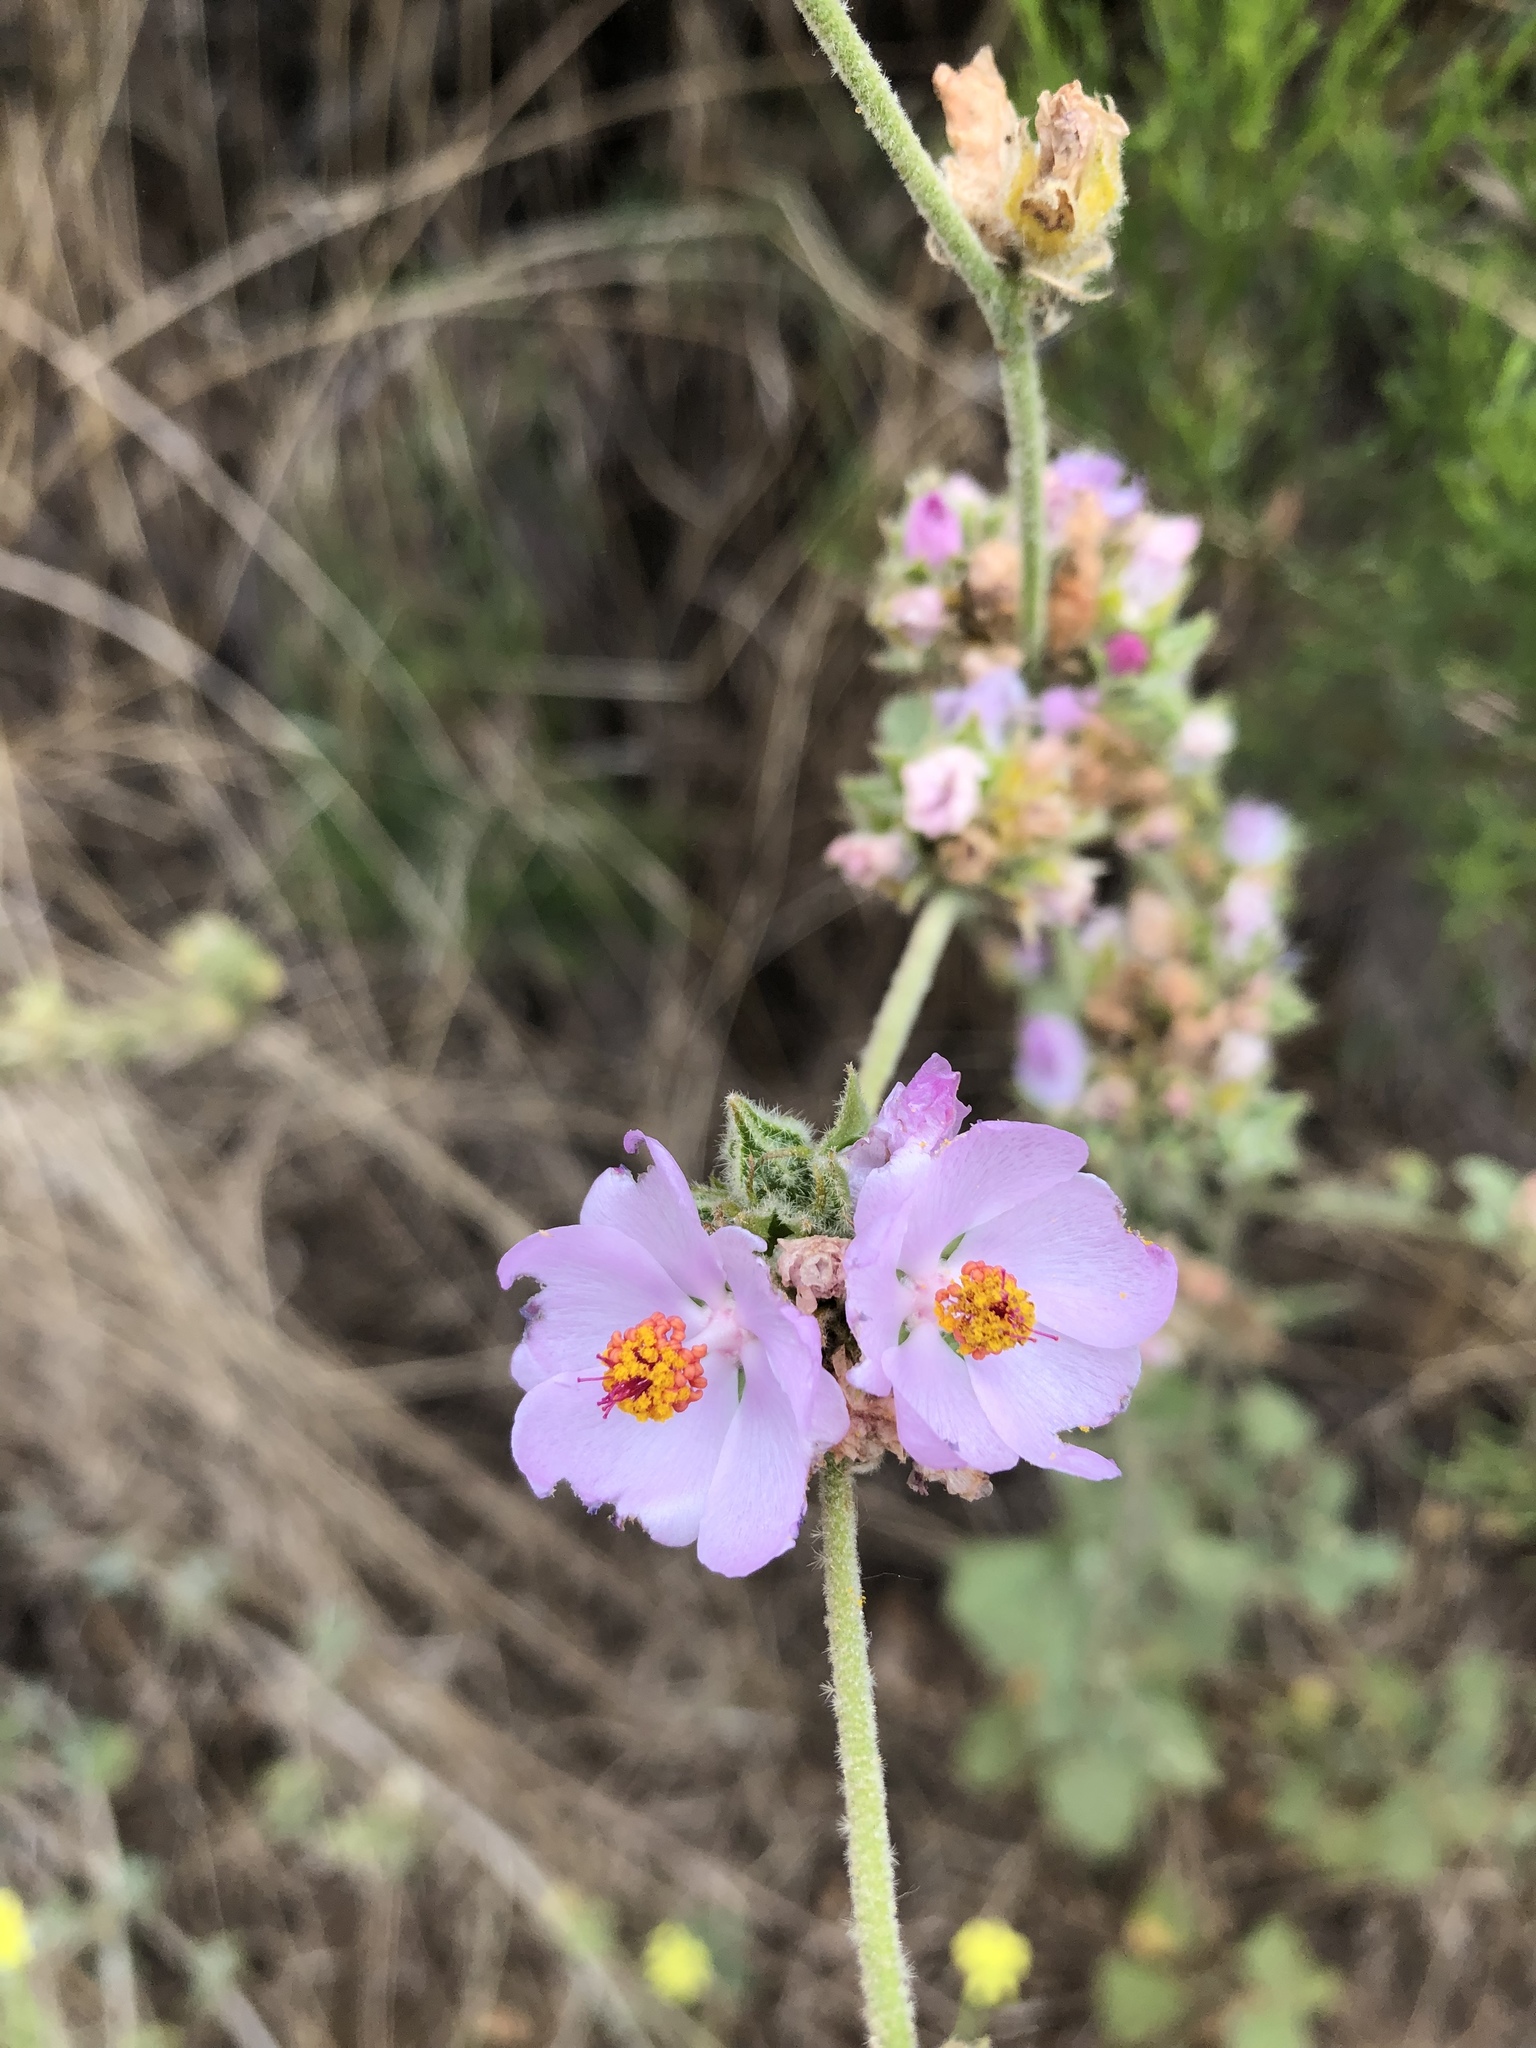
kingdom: Plantae
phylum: Tracheophyta
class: Magnoliopsida
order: Malvales
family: Malvaceae
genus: Malacothamnus
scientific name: Malacothamnus densiflorus
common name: Yellow-stem bush-mallow
